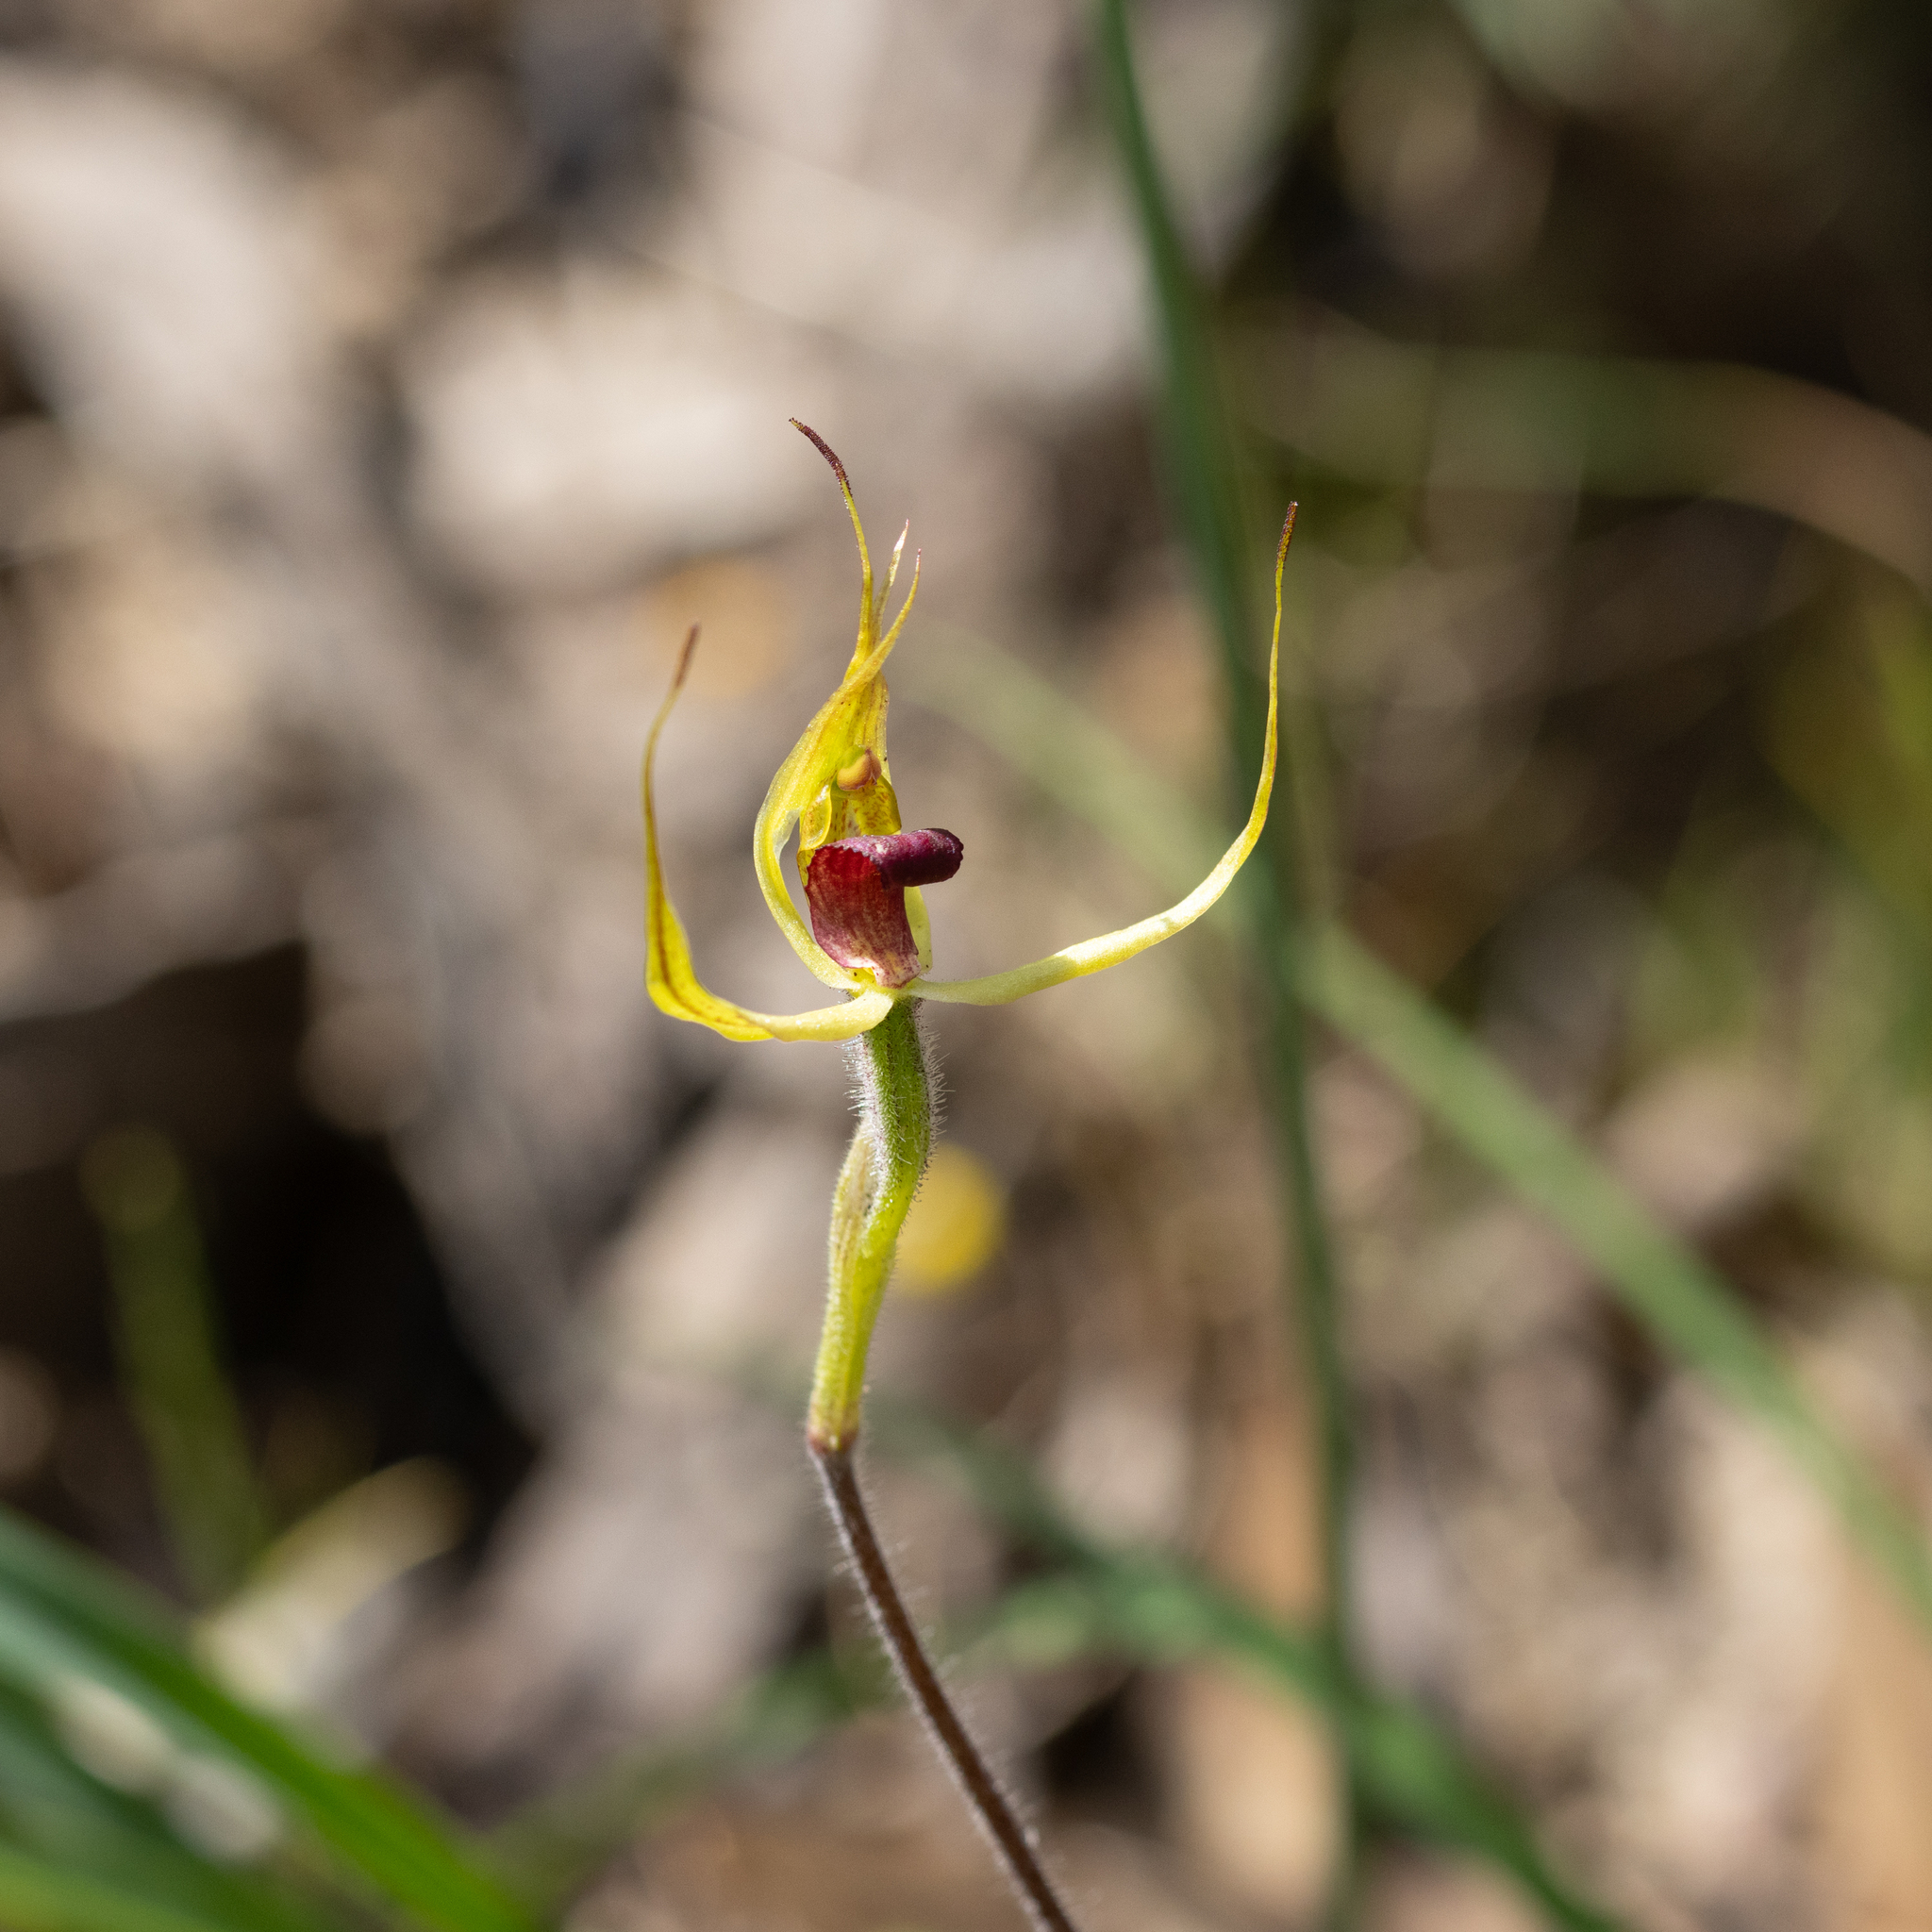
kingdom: Plantae
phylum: Tracheophyta
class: Liliopsida
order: Asparagales
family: Orchidaceae
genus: Caladenia
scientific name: Caladenia leptochila
